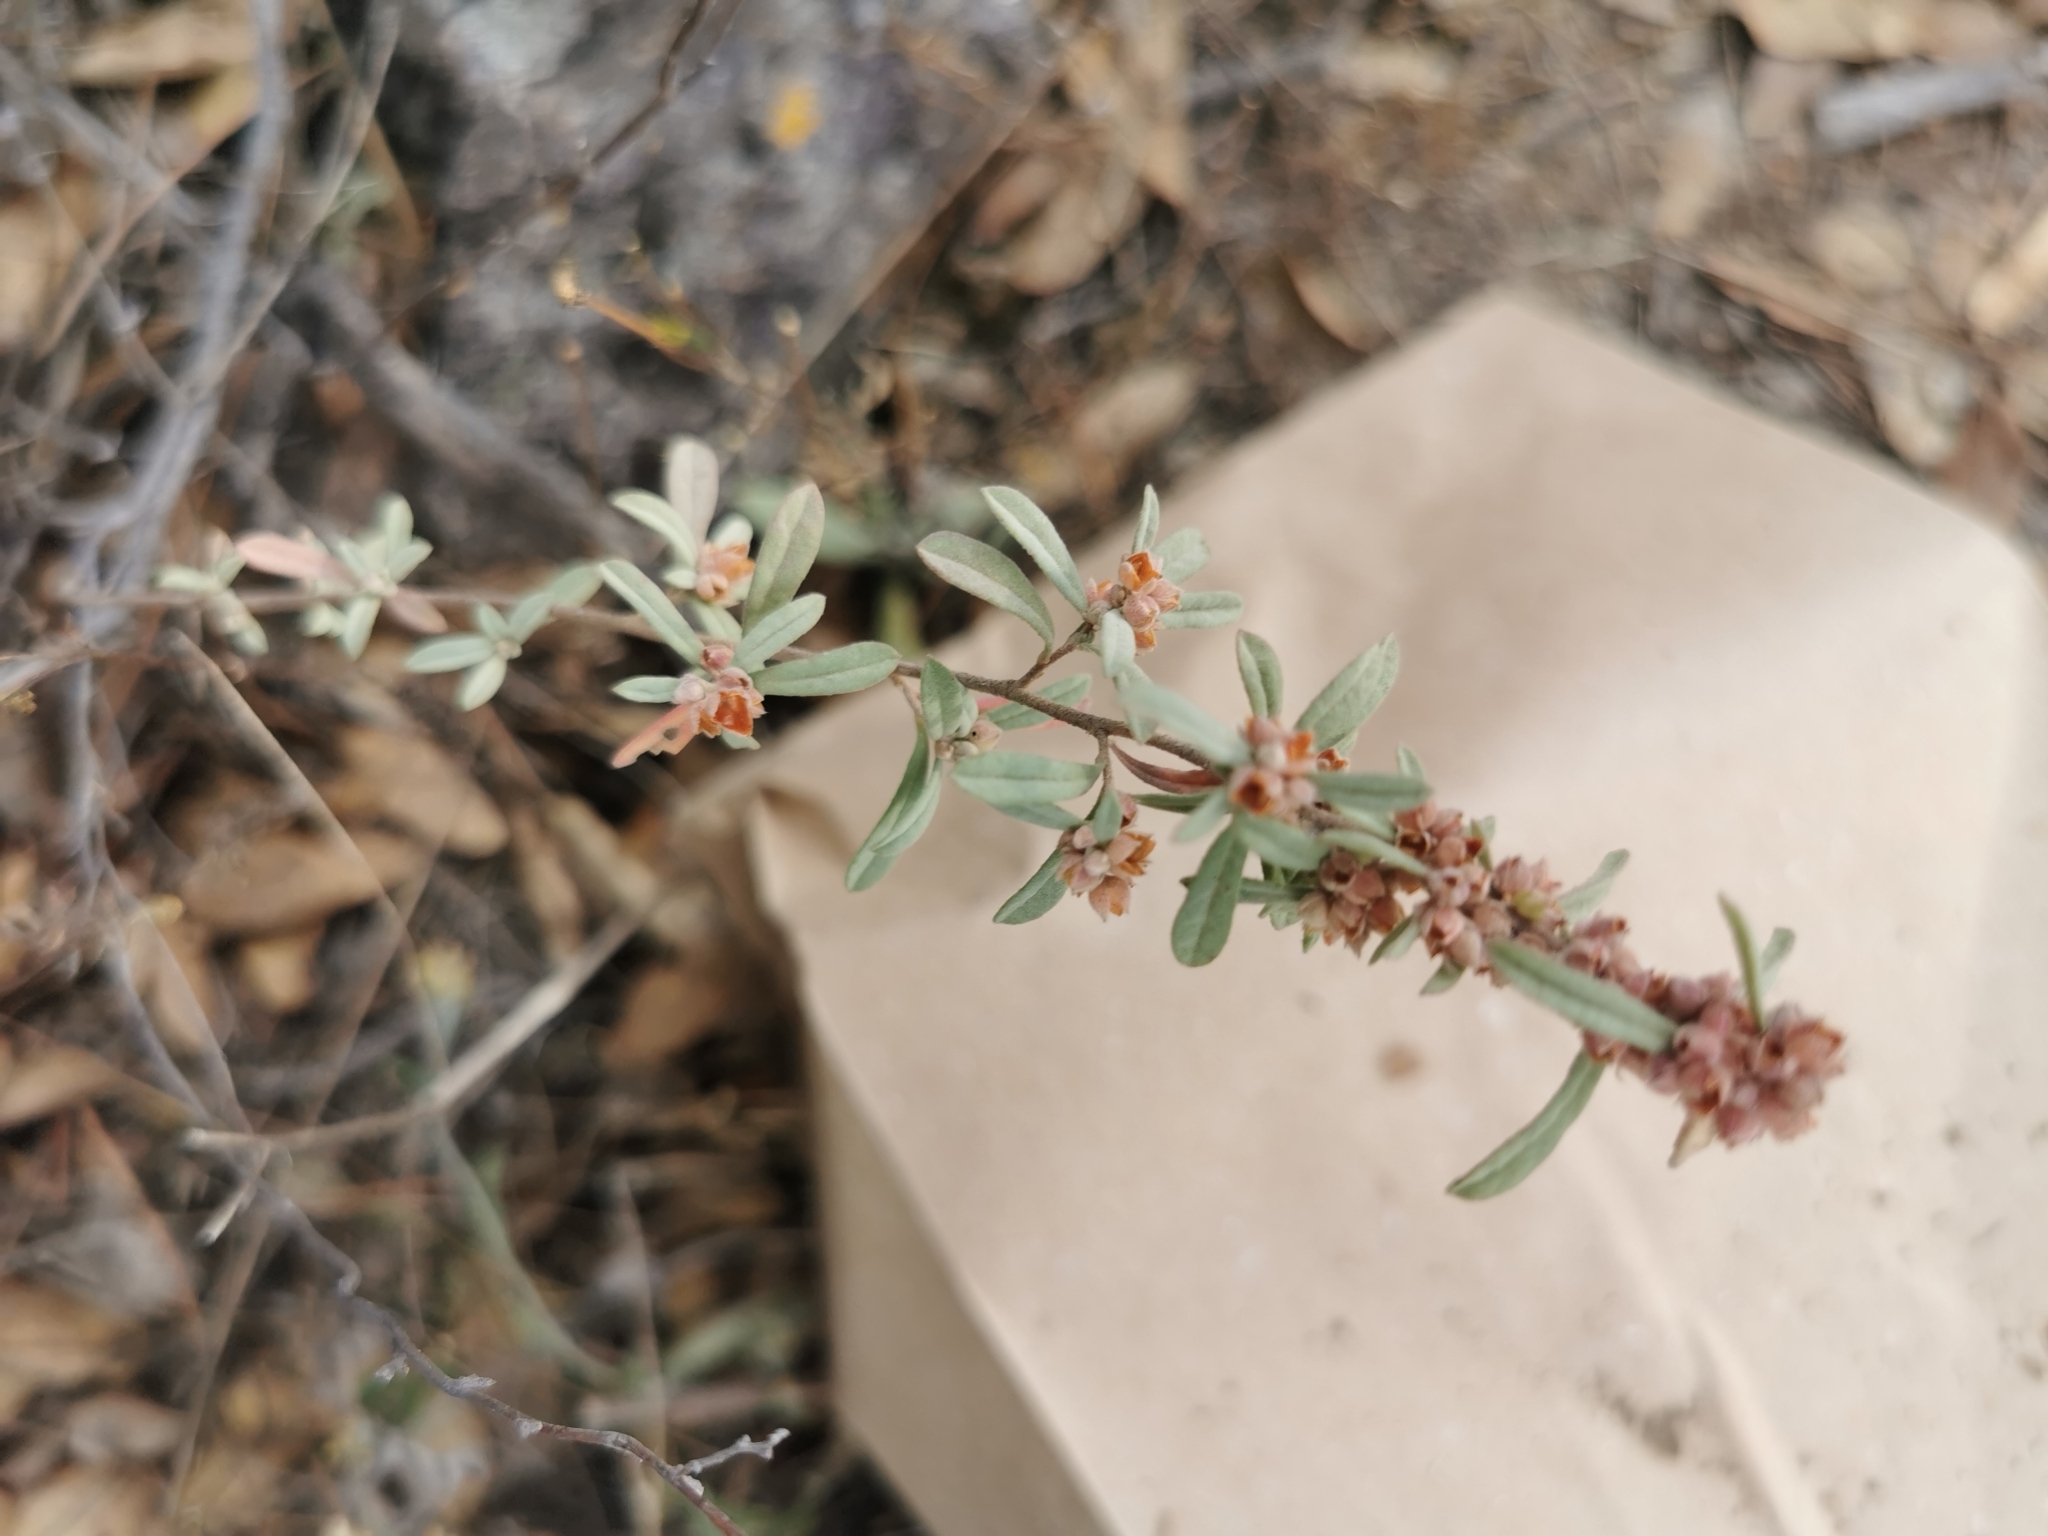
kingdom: Plantae
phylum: Tracheophyta
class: Magnoliopsida
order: Malvales
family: Cistaceae
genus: Crocanthemum
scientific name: Crocanthemum glomeratum
